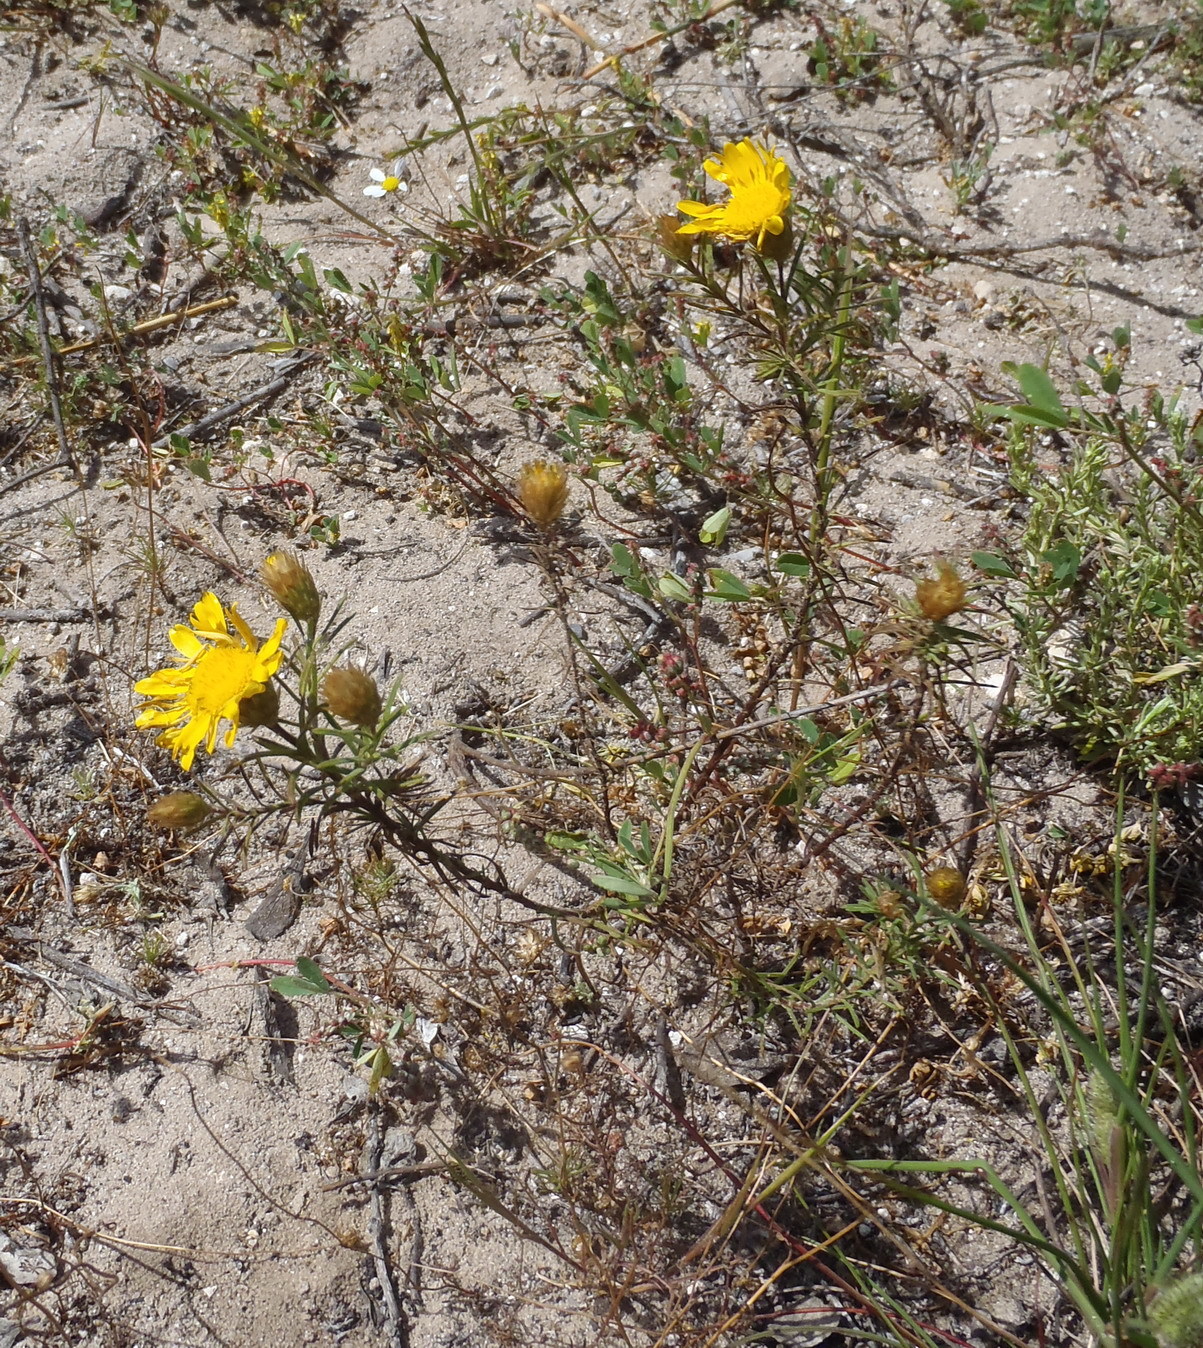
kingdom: Plantae
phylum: Tracheophyta
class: Magnoliopsida
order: Asterales
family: Asteraceae
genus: Nestlera
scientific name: Nestlera biennis
